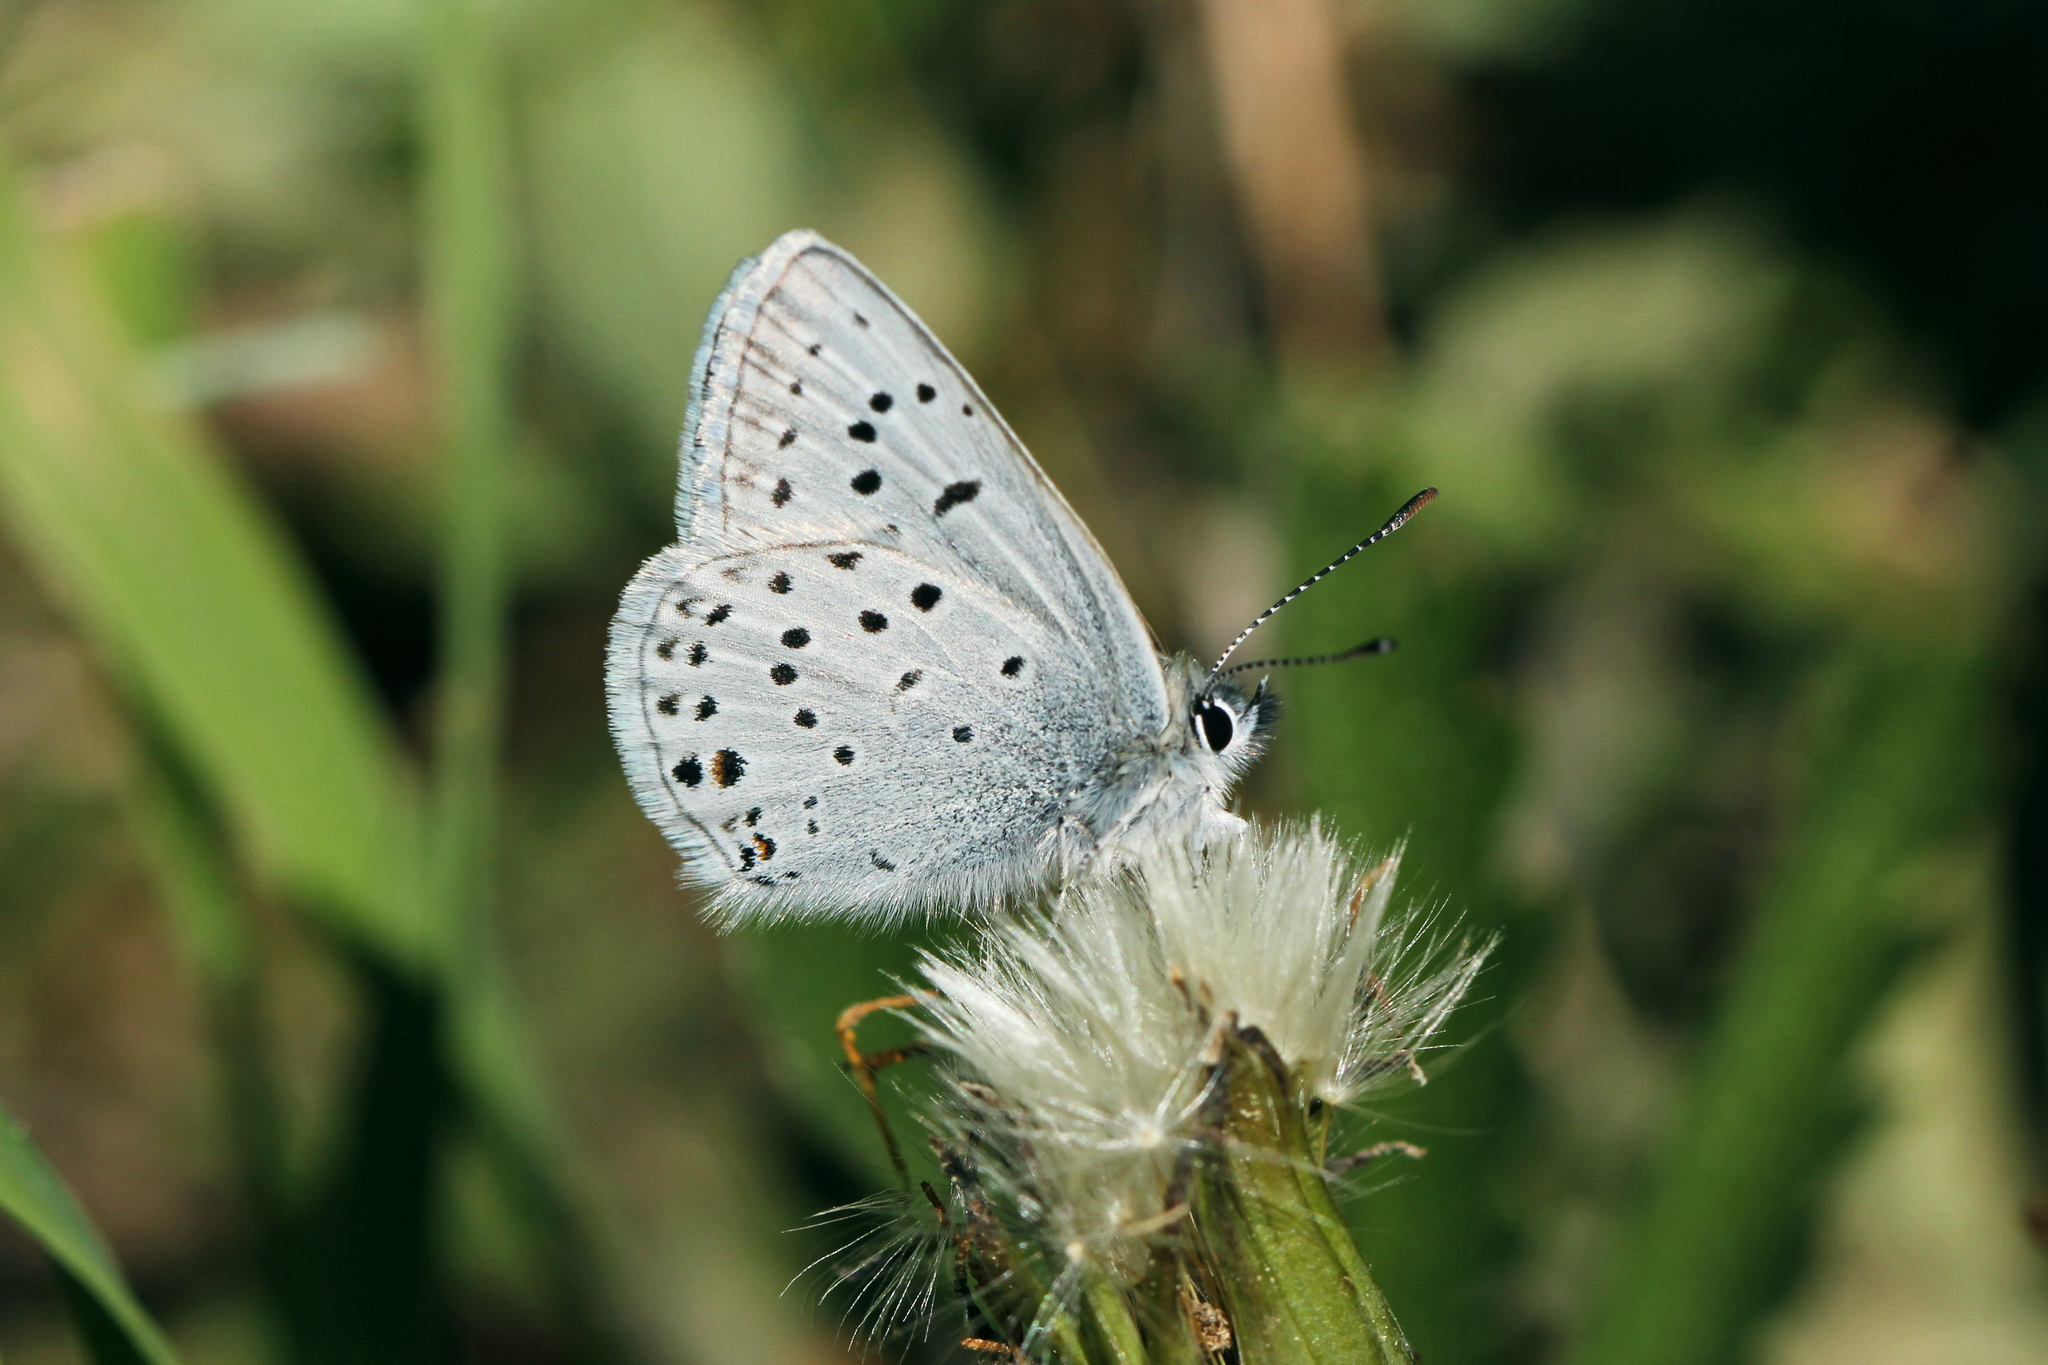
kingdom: Animalia
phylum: Arthropoda
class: Insecta
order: Lepidoptera
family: Lycaenidae
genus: Icaricia
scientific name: Icaricia saepiolus
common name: Greenish blue
